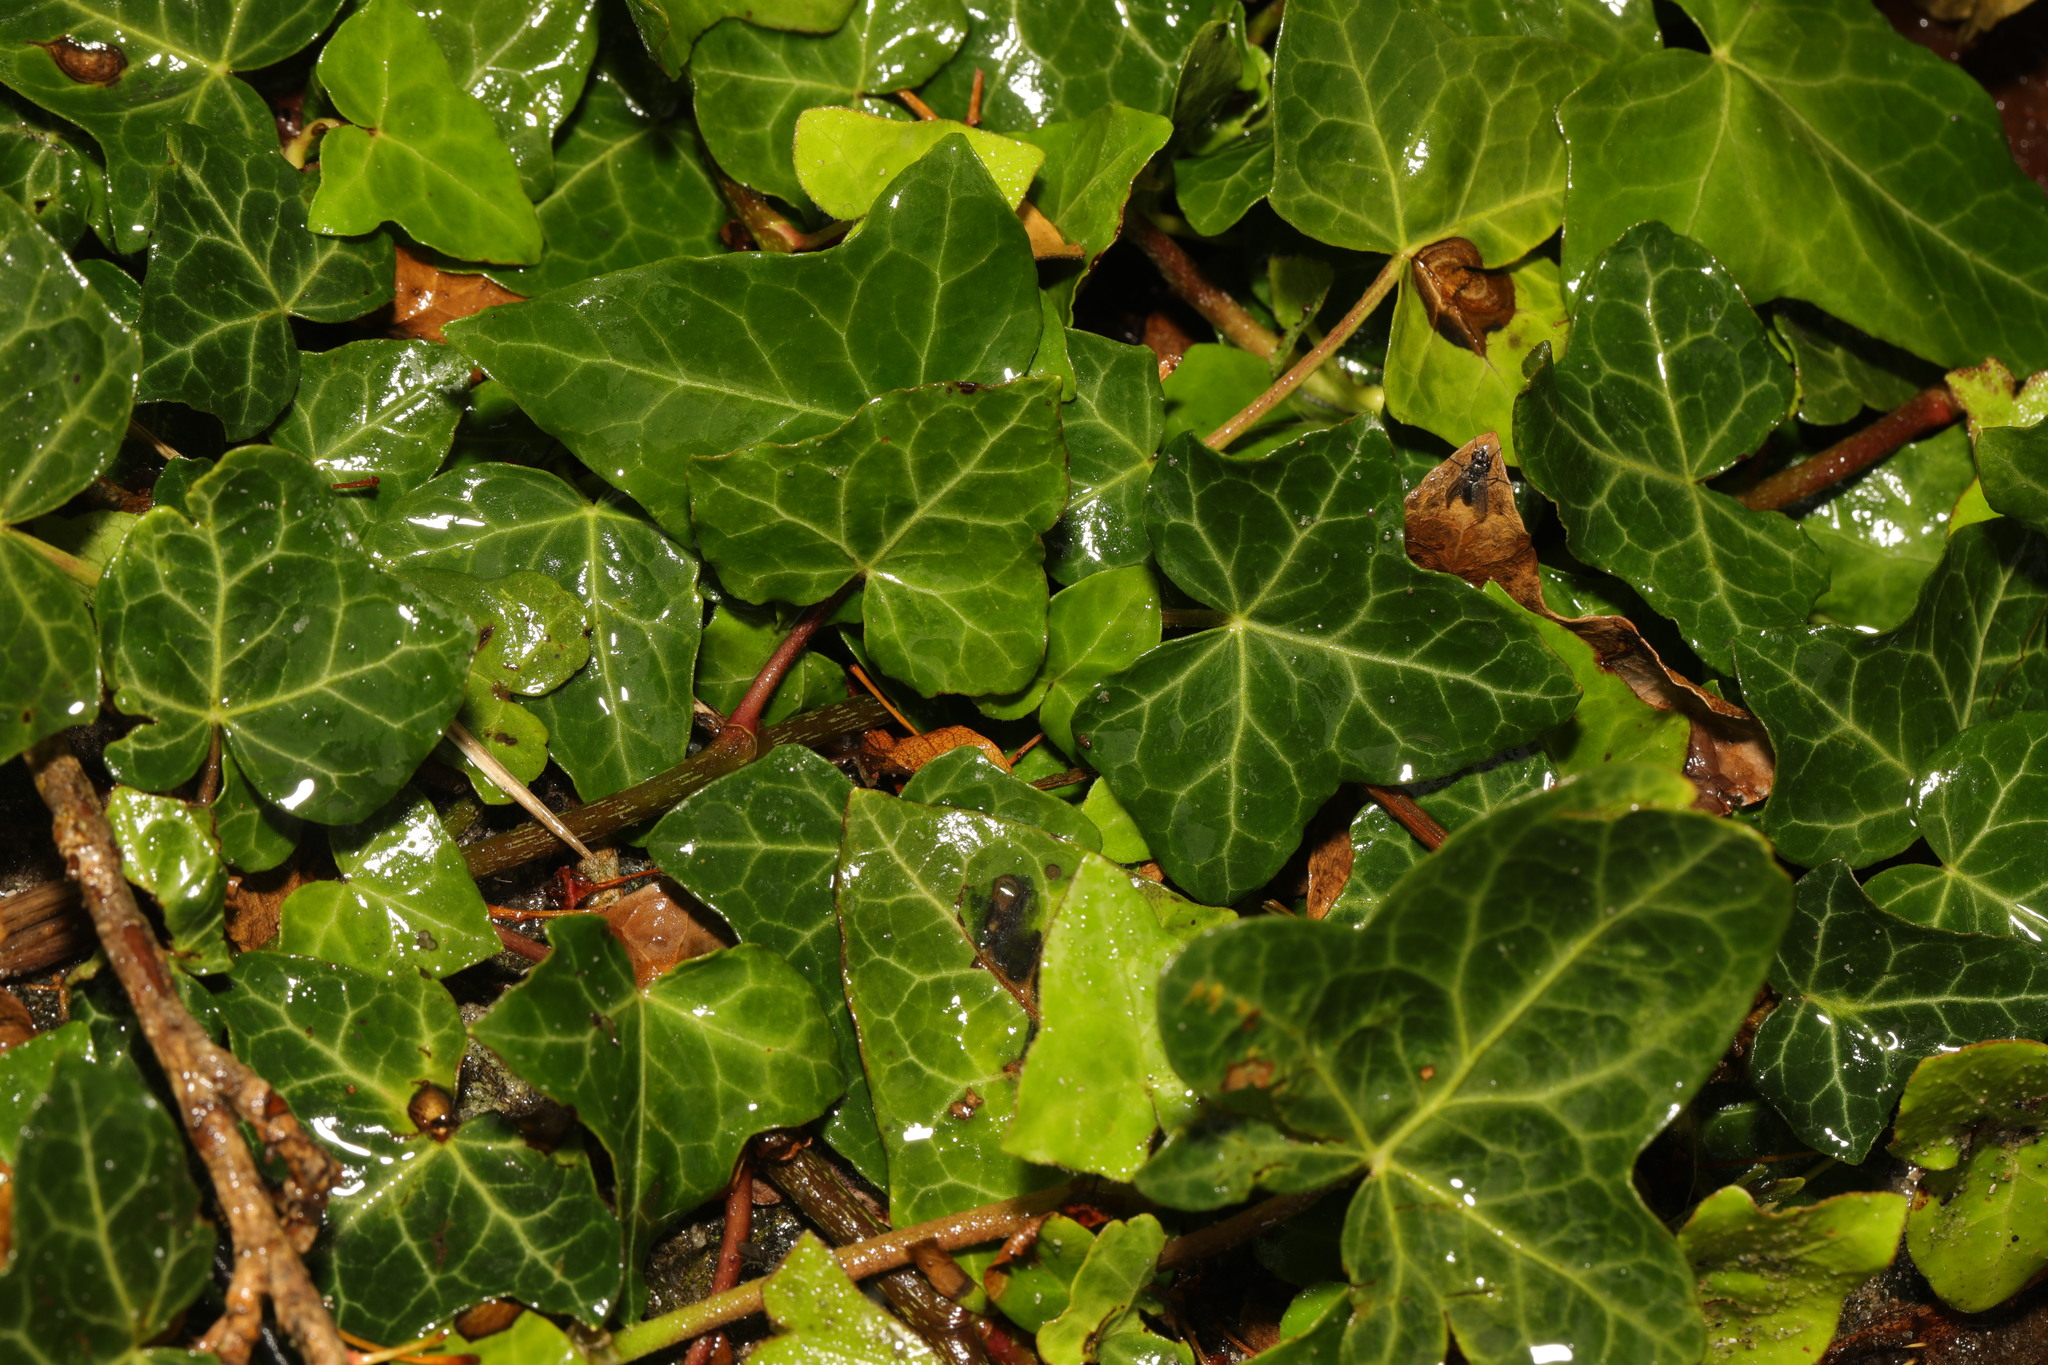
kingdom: Plantae
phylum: Tracheophyta
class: Magnoliopsida
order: Apiales
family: Araliaceae
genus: Hedera
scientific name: Hedera helix
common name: Ivy
